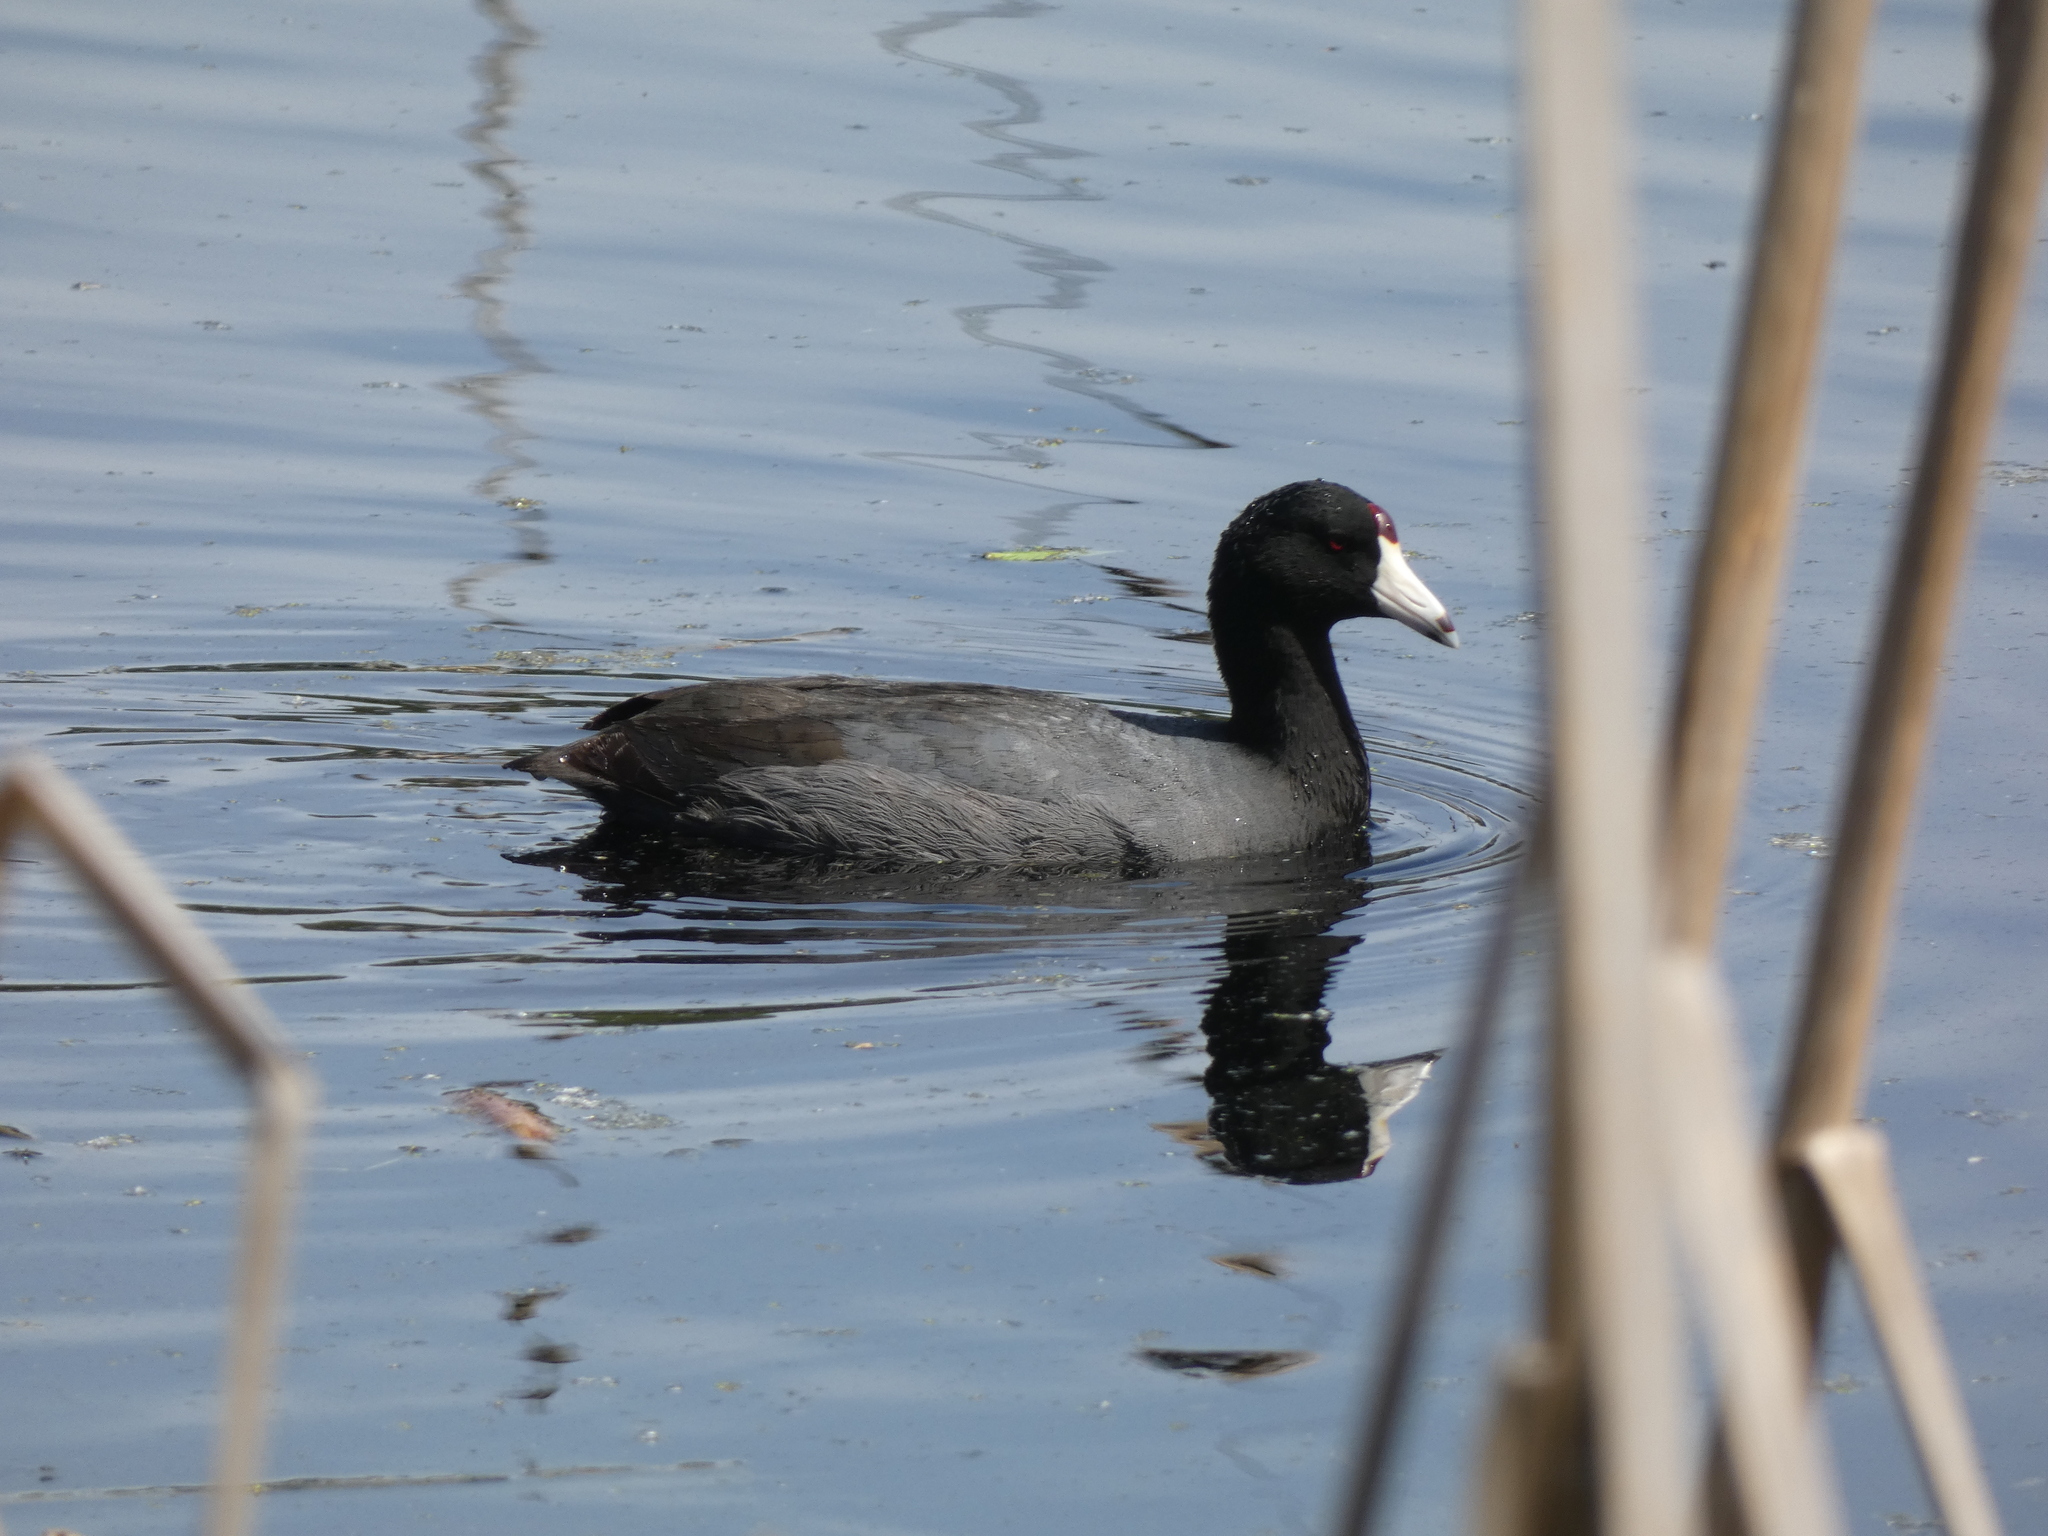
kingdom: Animalia
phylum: Chordata
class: Aves
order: Gruiformes
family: Rallidae
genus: Fulica
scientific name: Fulica americana
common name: American coot
